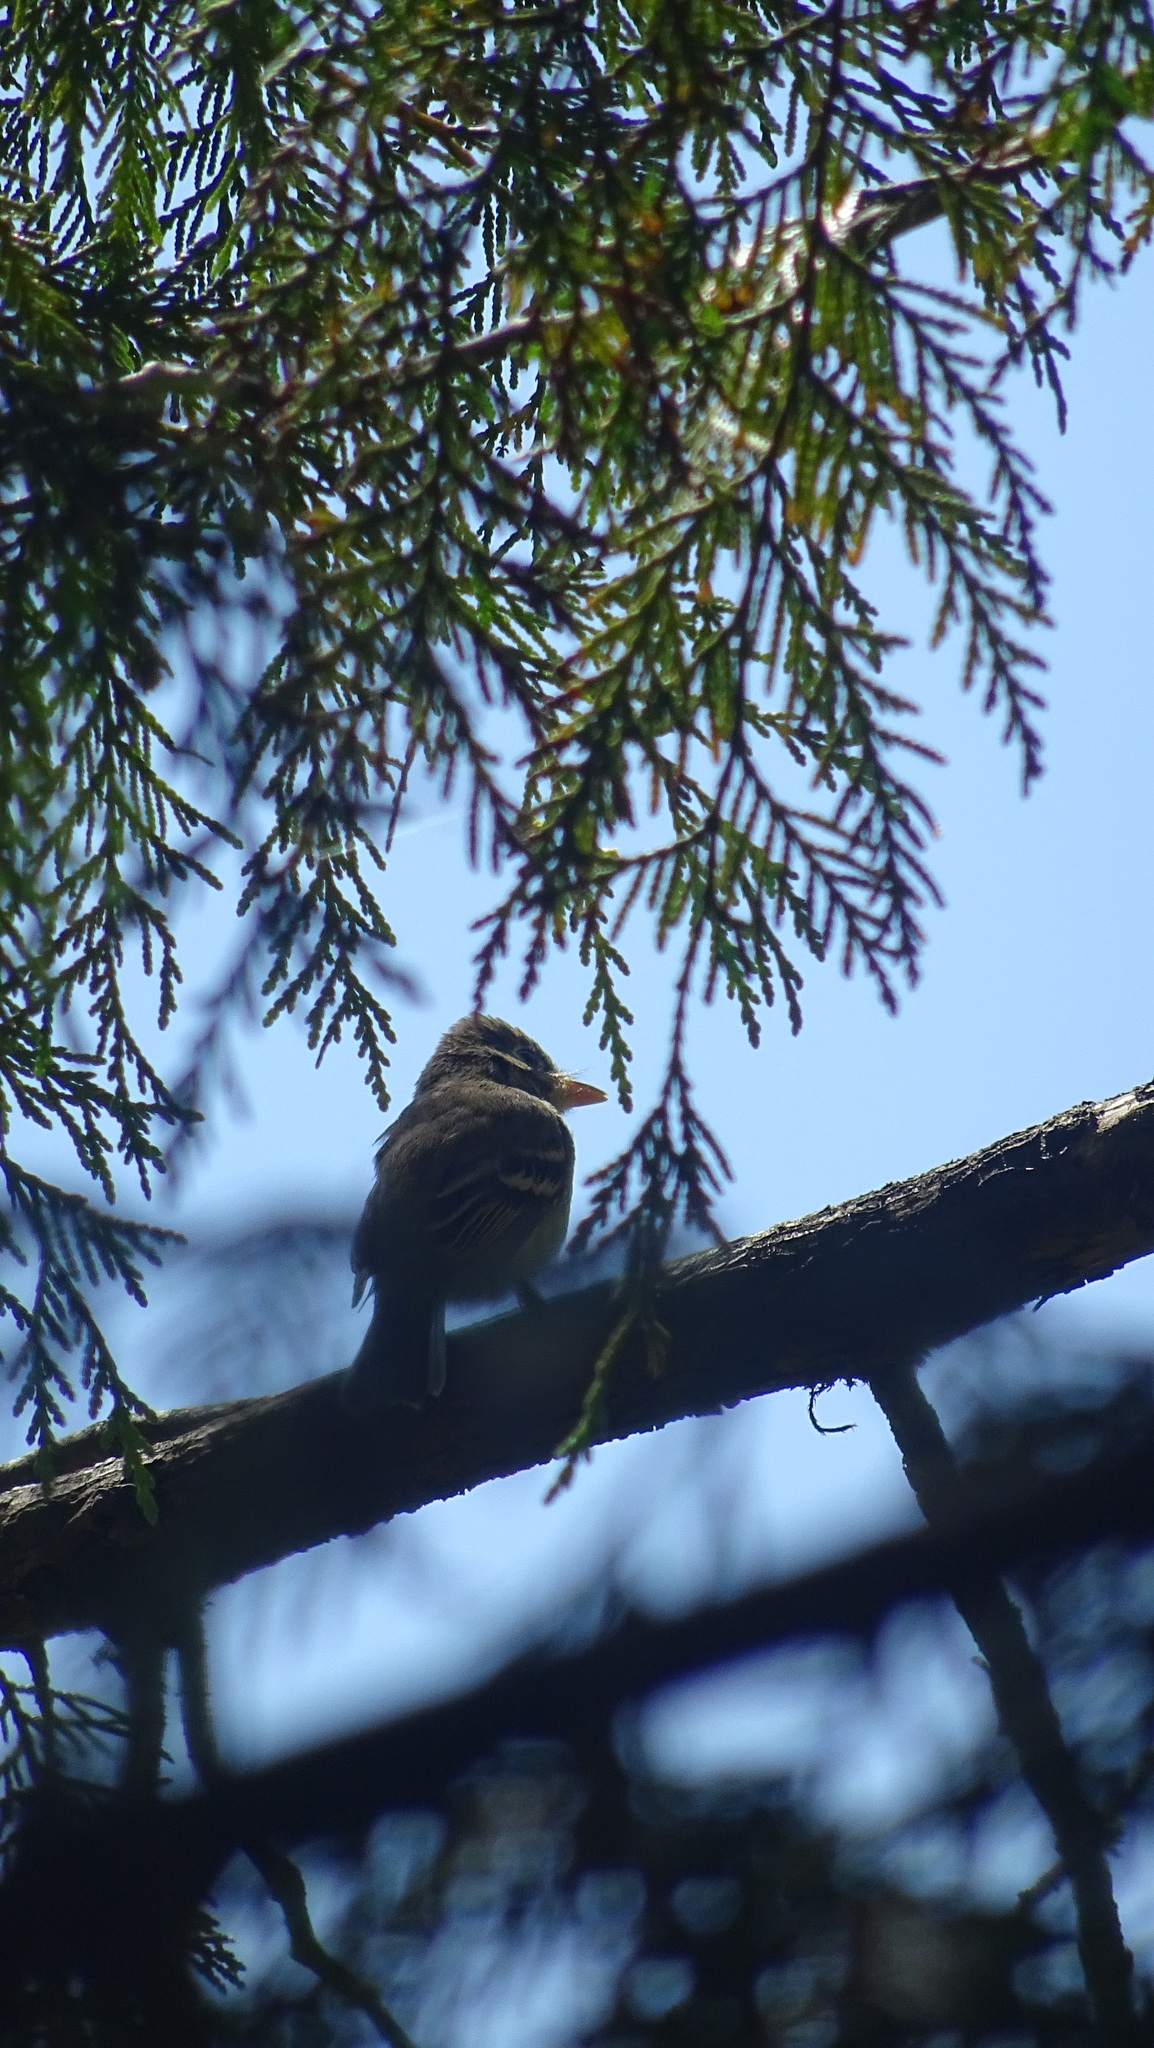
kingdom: Animalia
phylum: Chordata
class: Aves
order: Passeriformes
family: Tyrannidae
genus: Empidonax
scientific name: Empidonax difficilis
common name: Pacific-slope flycatcher
